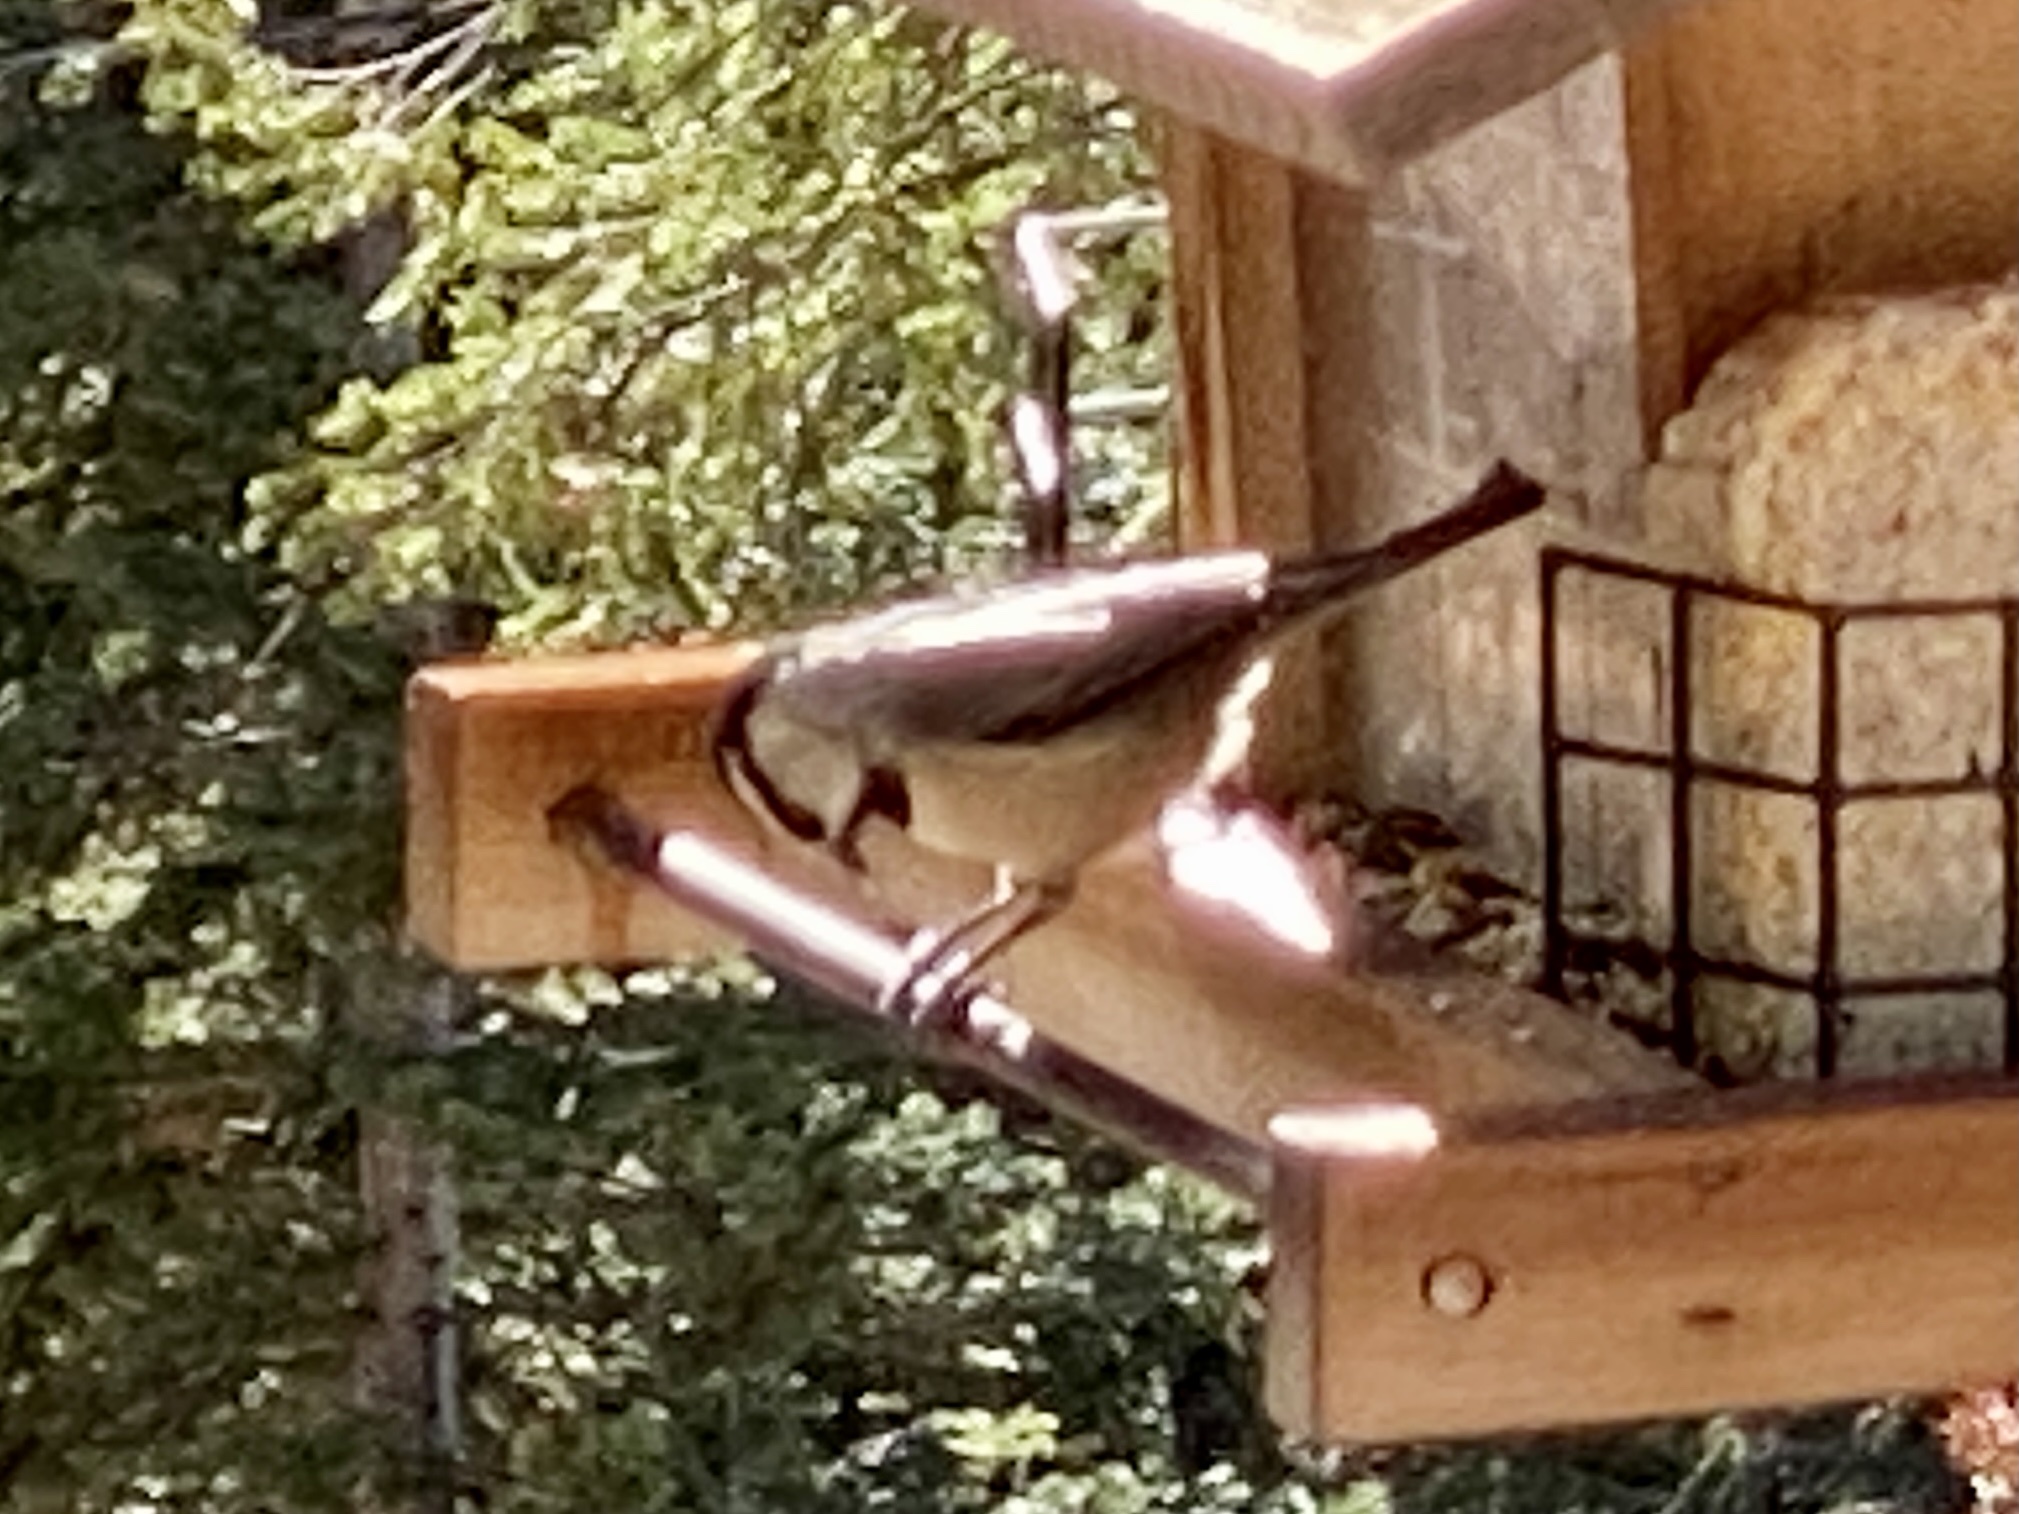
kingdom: Animalia
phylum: Chordata
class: Aves
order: Passeriformes
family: Paridae
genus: Poecile
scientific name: Poecile gambeli
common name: Mountain chickadee
